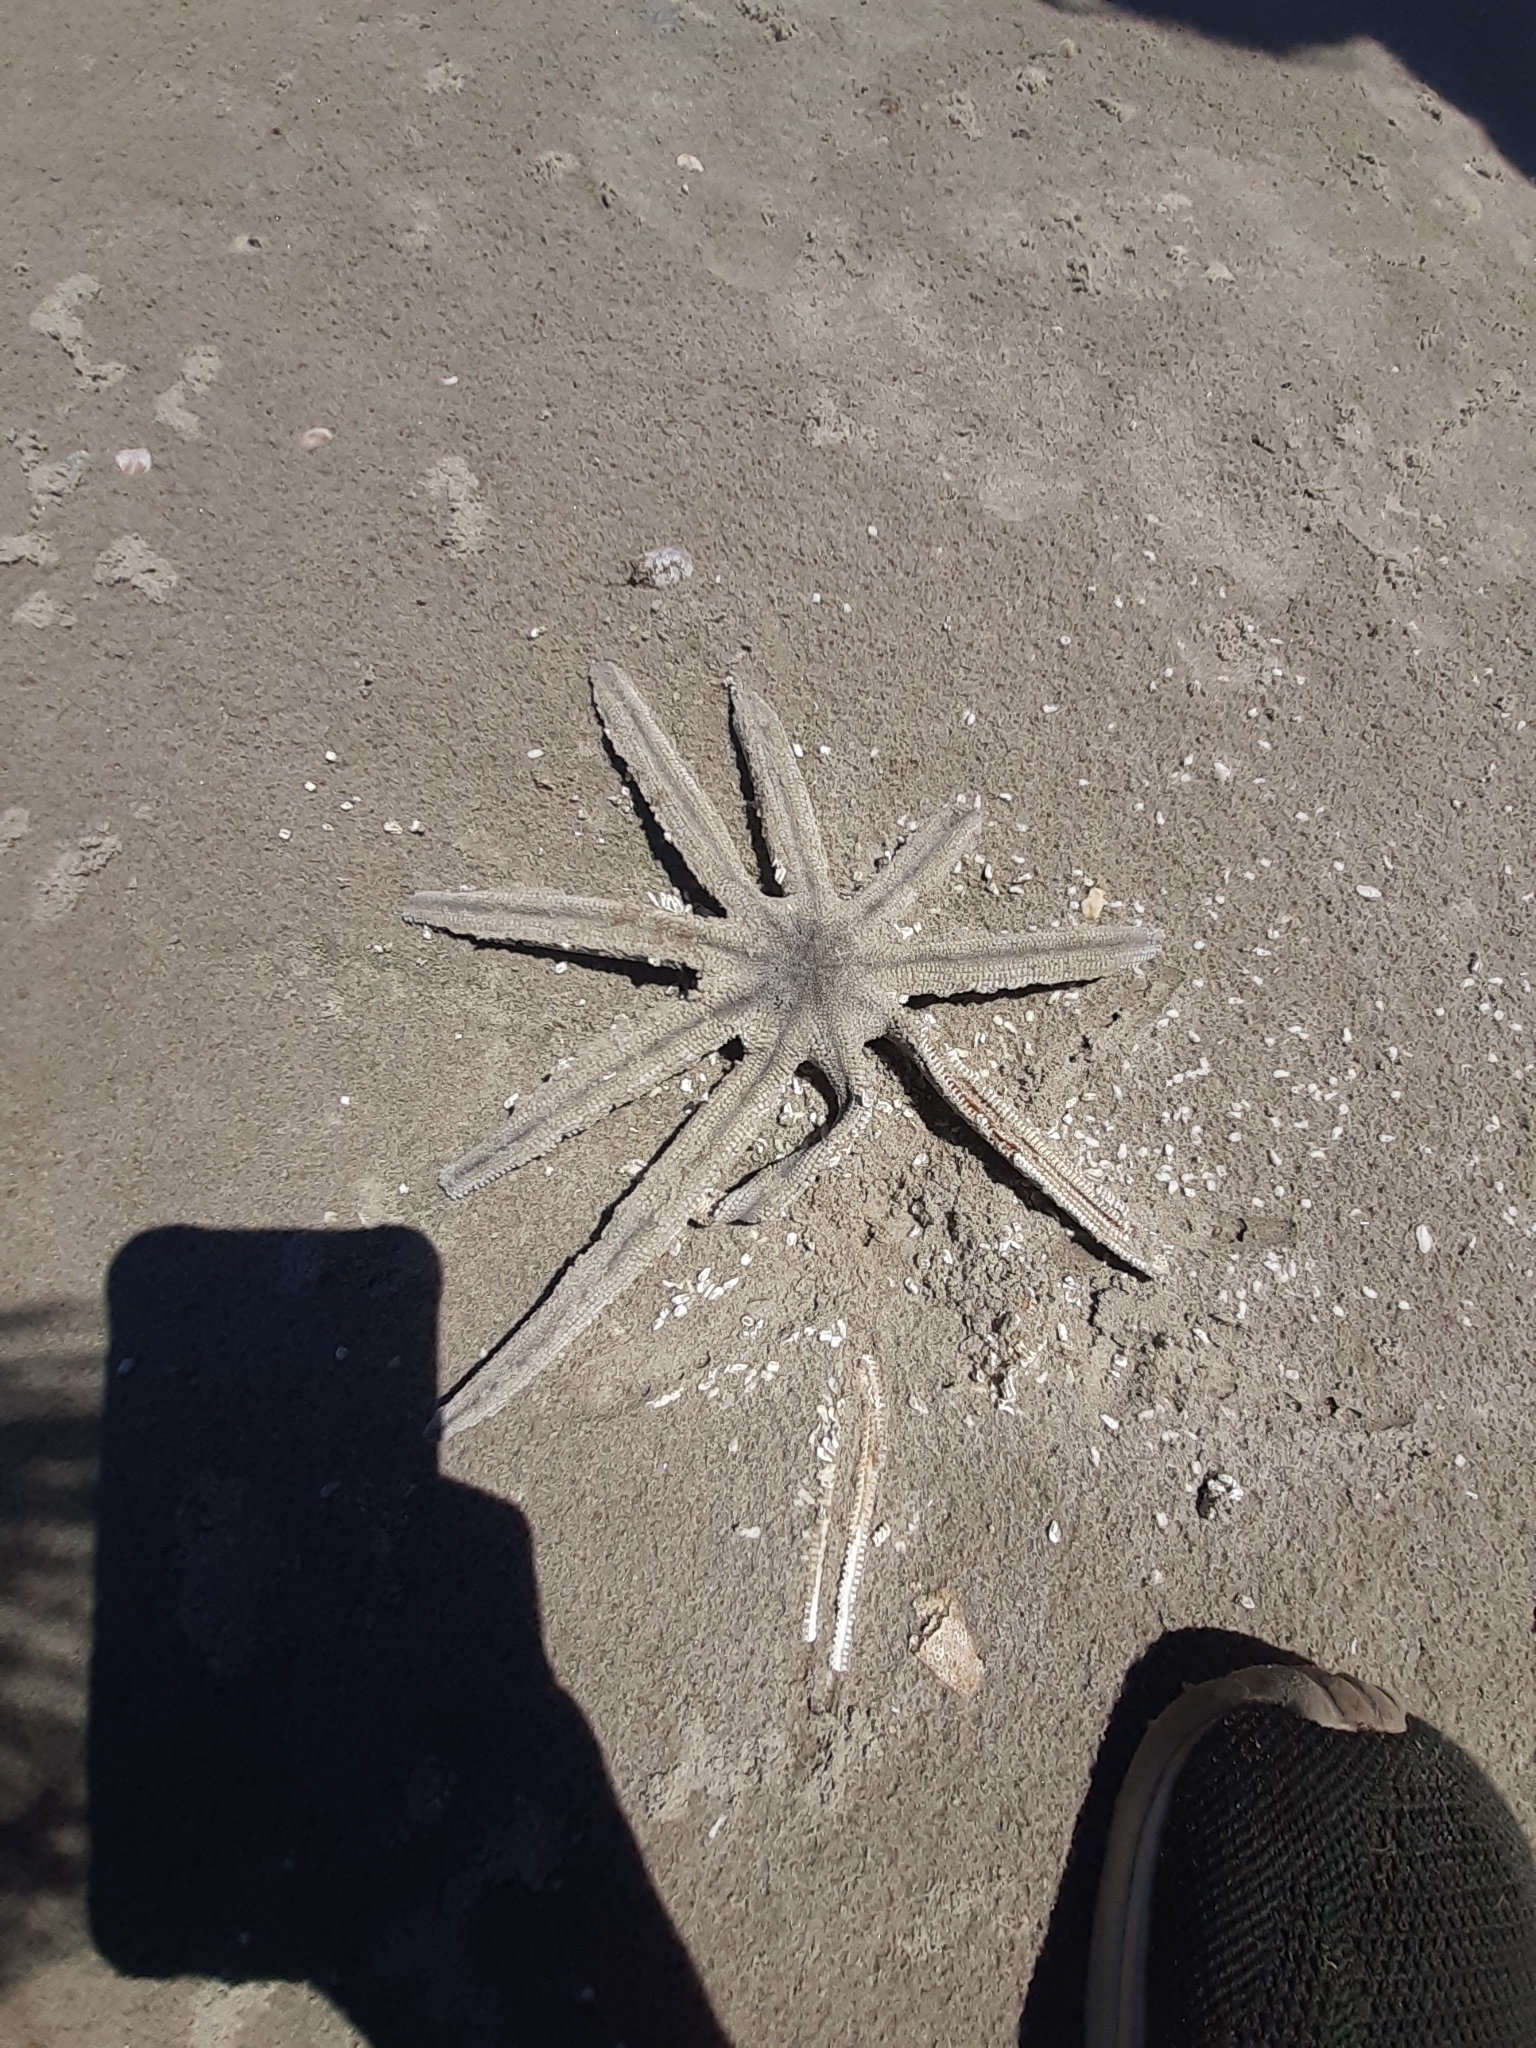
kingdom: Animalia
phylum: Echinodermata
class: Asteroidea
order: Paxillosida
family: Luidiidae
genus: Luidia
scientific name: Luidia senegalensis
